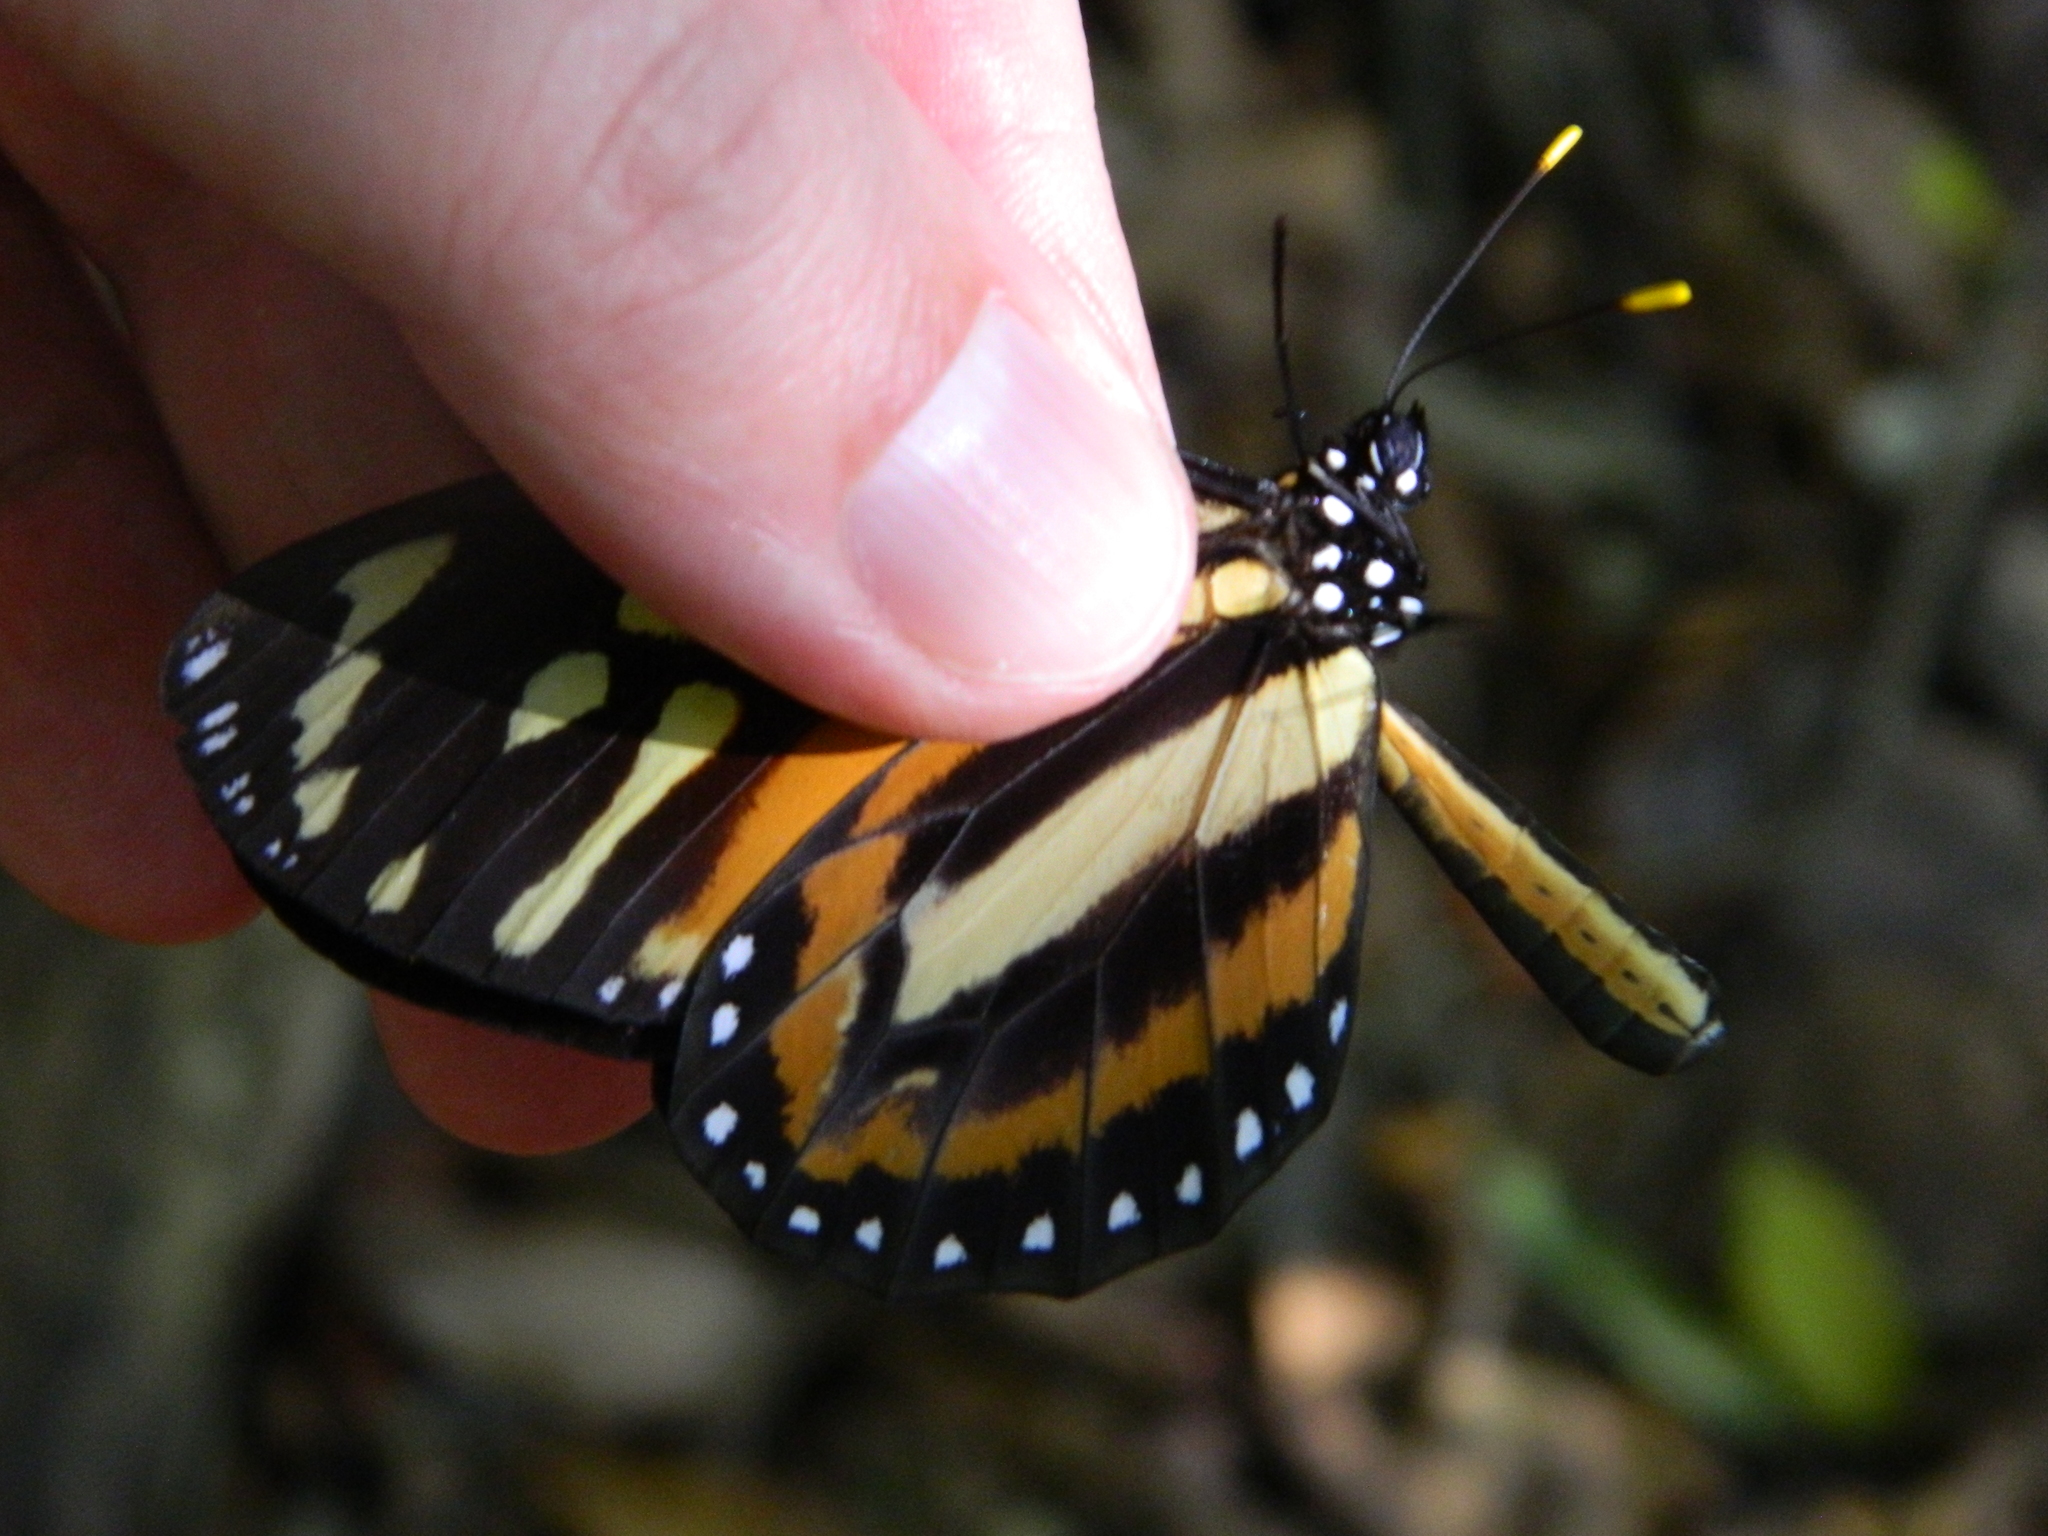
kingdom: Animalia
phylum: Arthropoda
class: Insecta
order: Lepidoptera
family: Nymphalidae
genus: Lycorea
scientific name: Lycorea cleobaea
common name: Tiger mimic-queen
